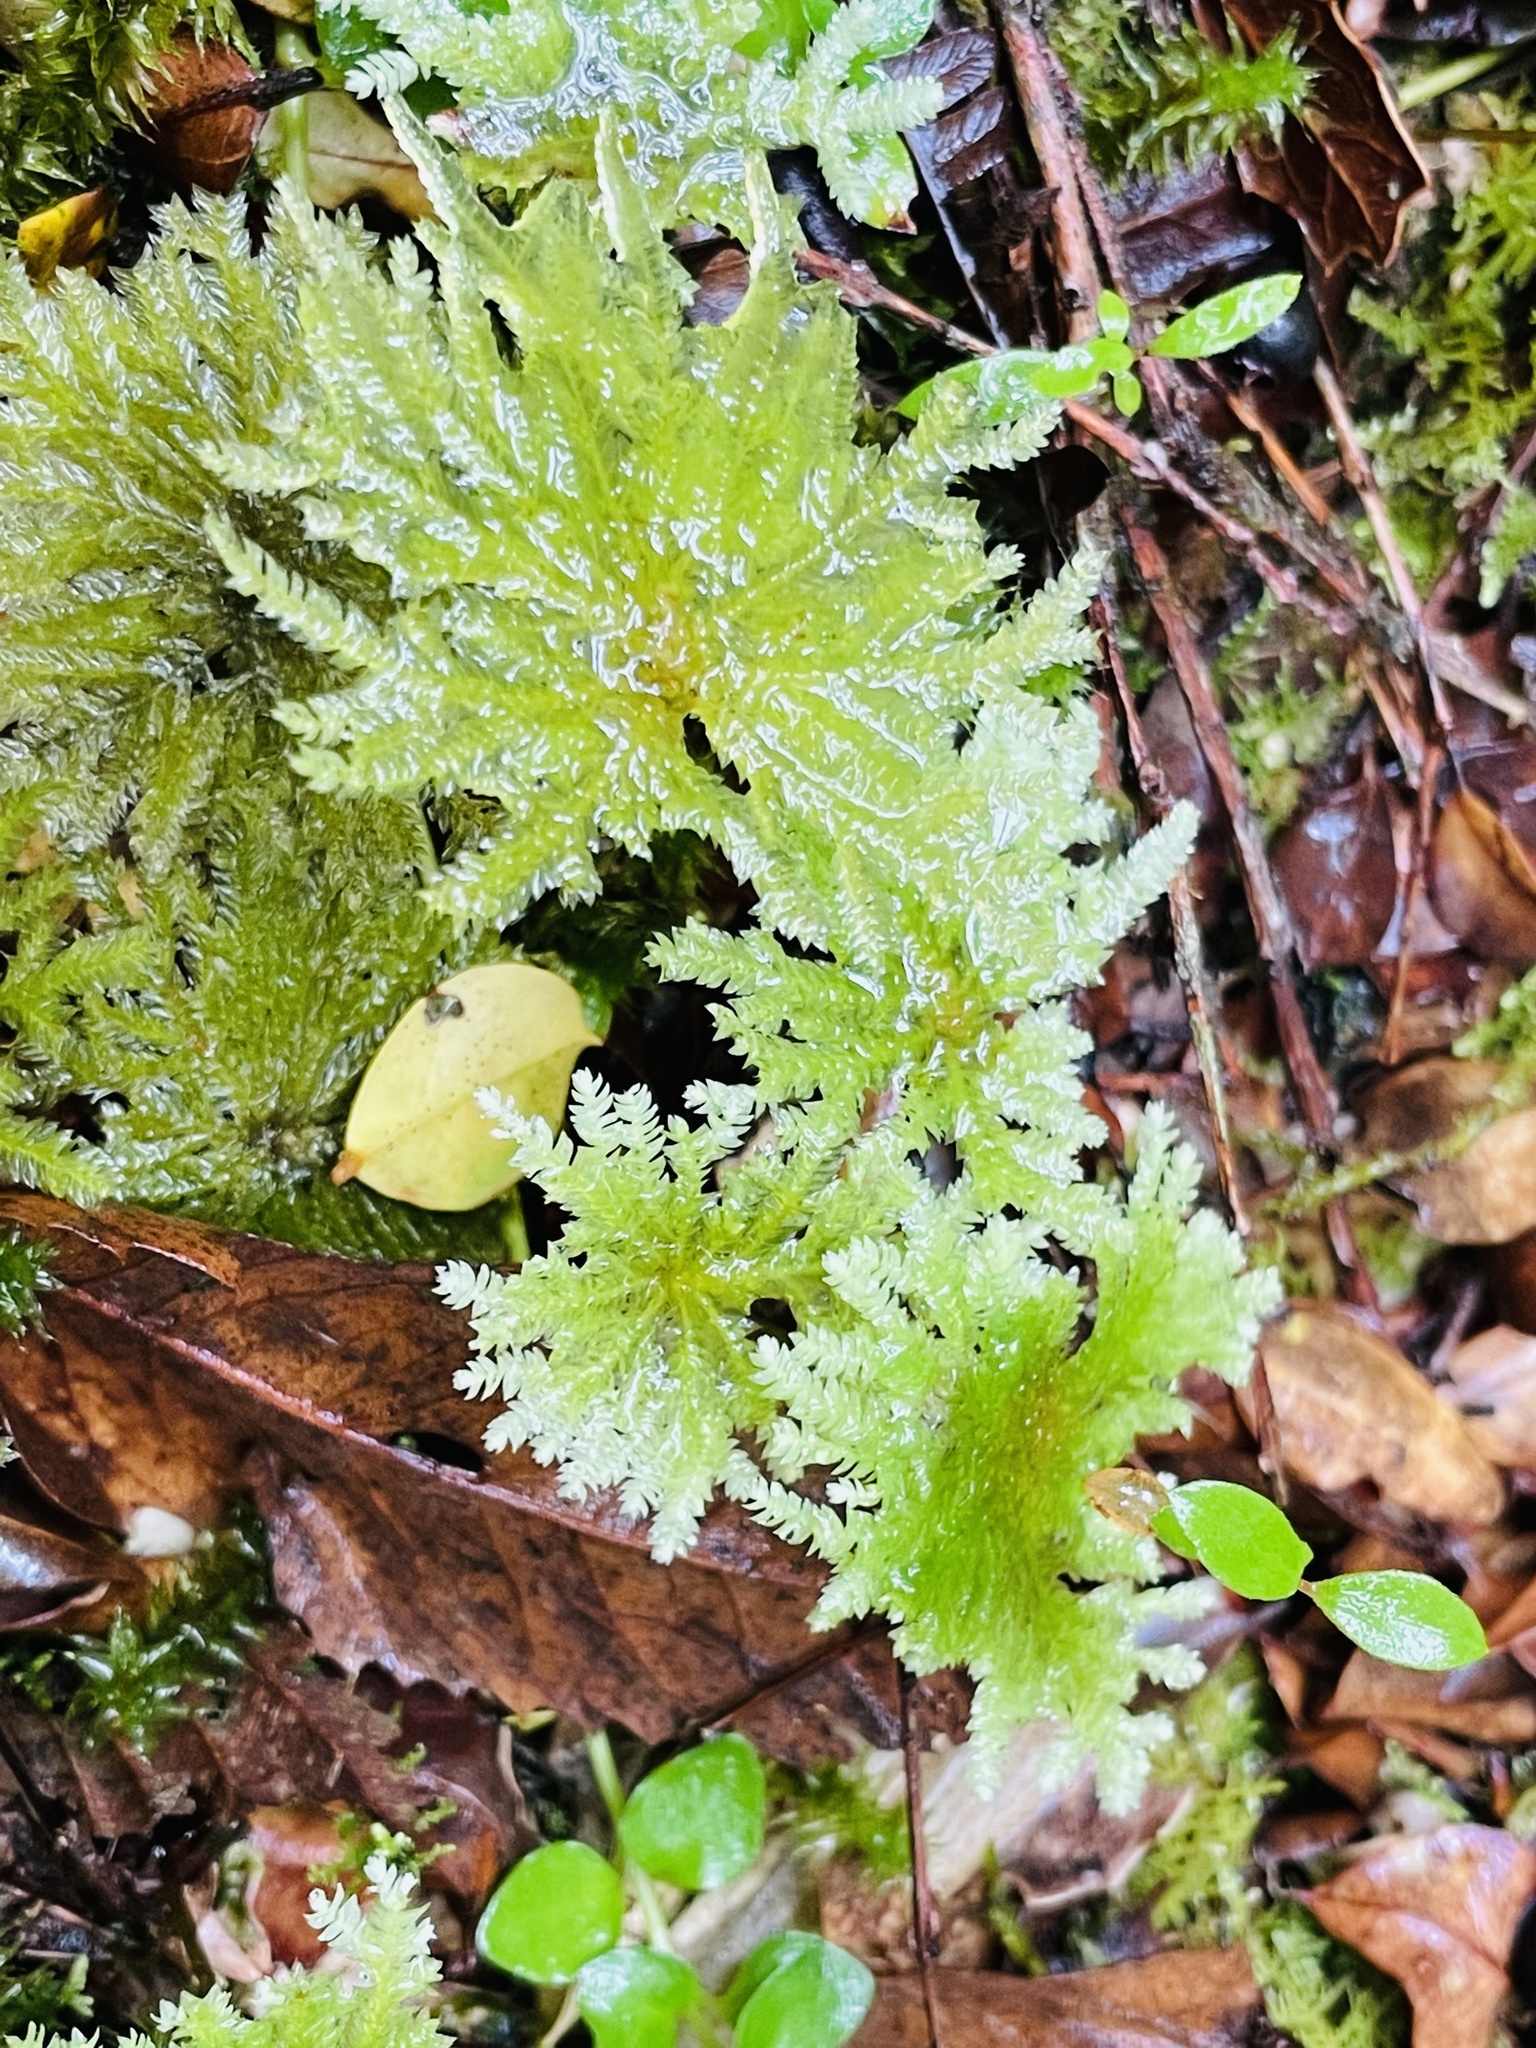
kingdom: Plantae
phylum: Bryophyta
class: Bryopsida
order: Hypopterygiales
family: Hypopterygiaceae
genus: Arbusculohypopterygium
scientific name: Arbusculohypopterygium arbuscula
